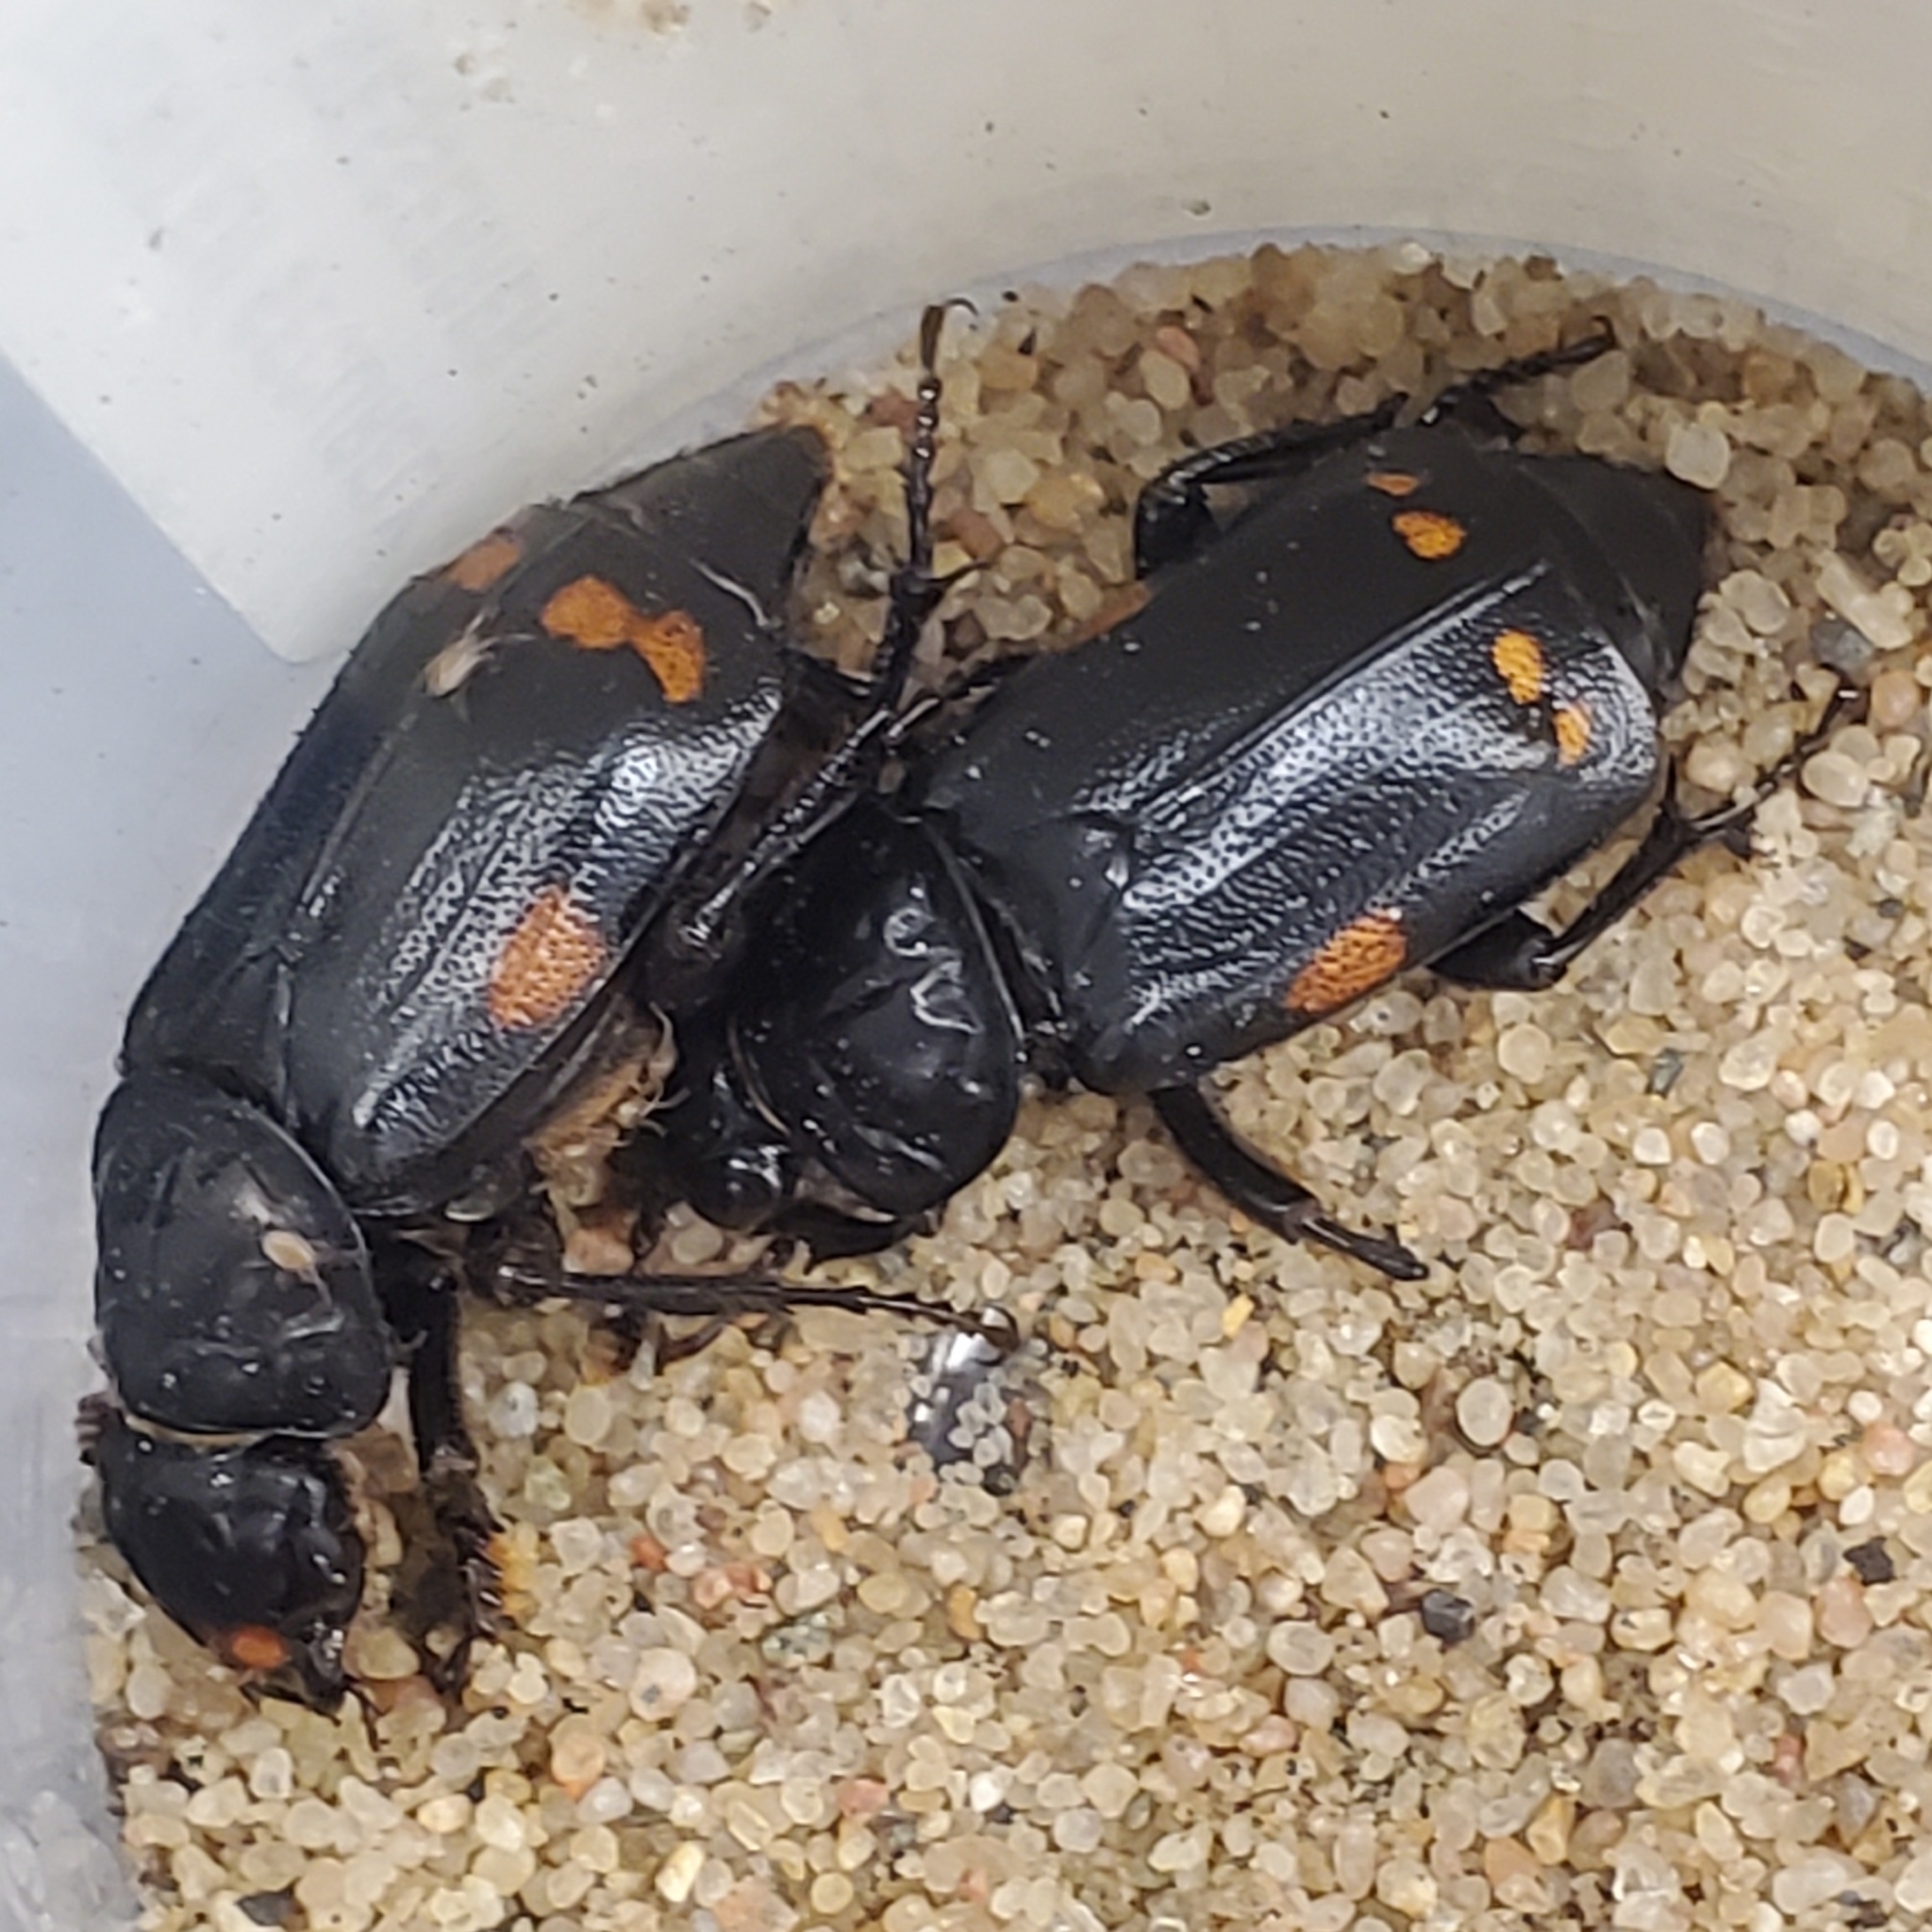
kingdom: Animalia
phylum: Arthropoda
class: Insecta
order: Coleoptera
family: Staphylinidae
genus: Nicrophorus
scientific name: Nicrophorus pustulatus
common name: Pustulated carrion beetle
